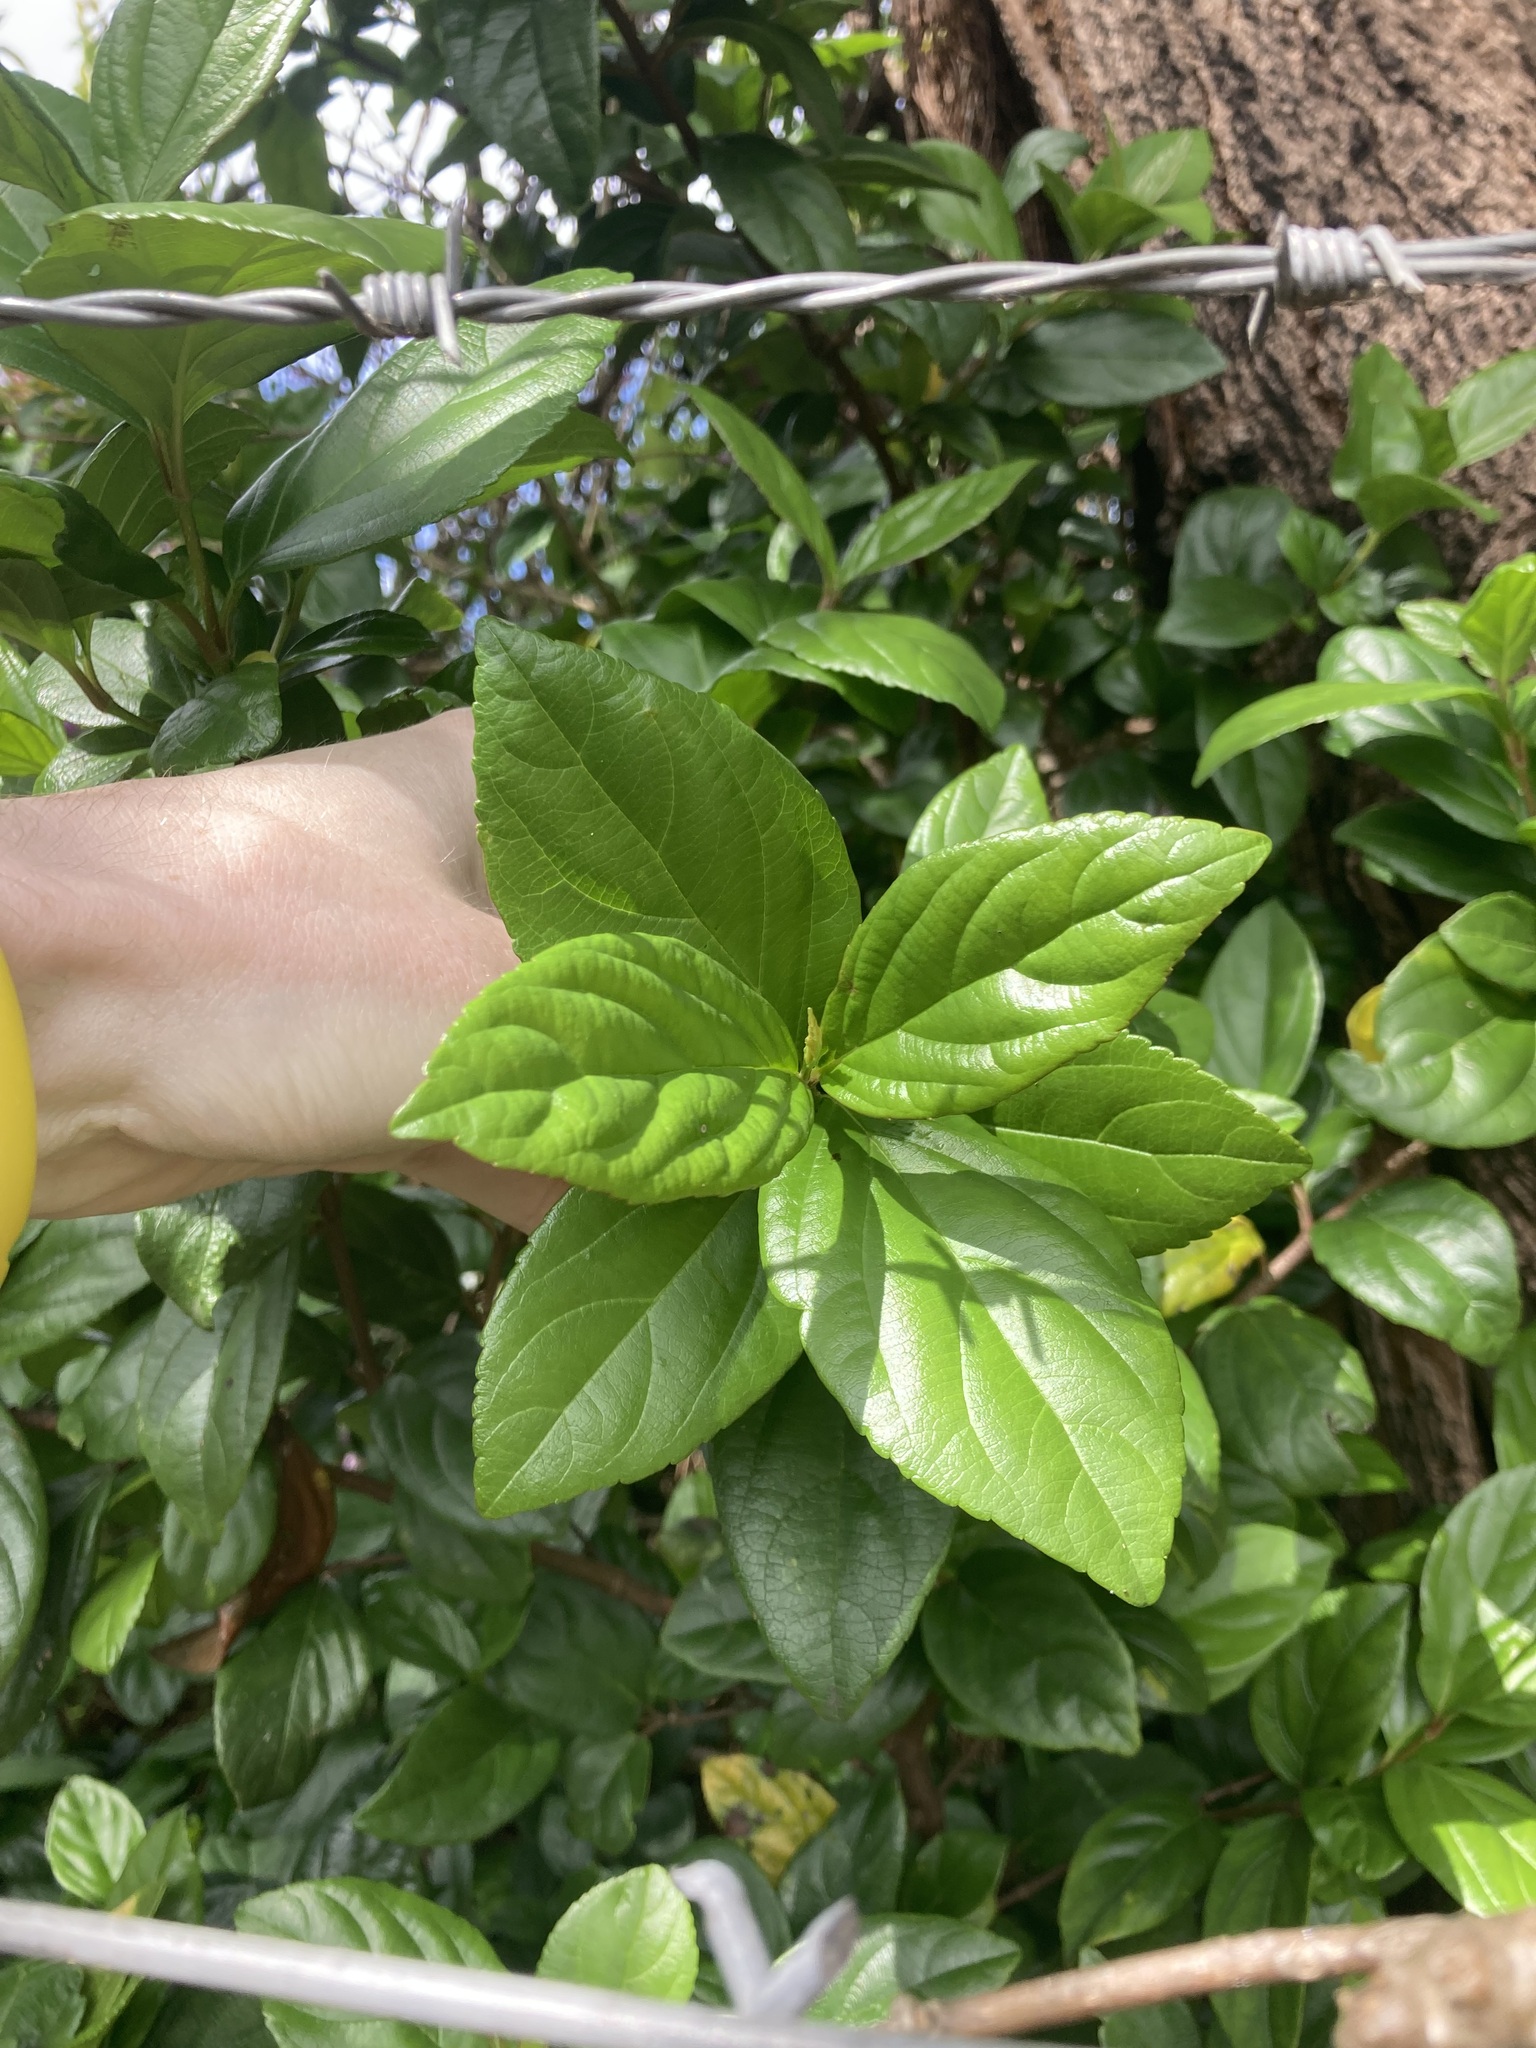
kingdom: Plantae
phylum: Tracheophyta
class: Magnoliopsida
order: Dipsacales
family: Viburnaceae
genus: Viburnum
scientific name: Viburnum odoratissimum
